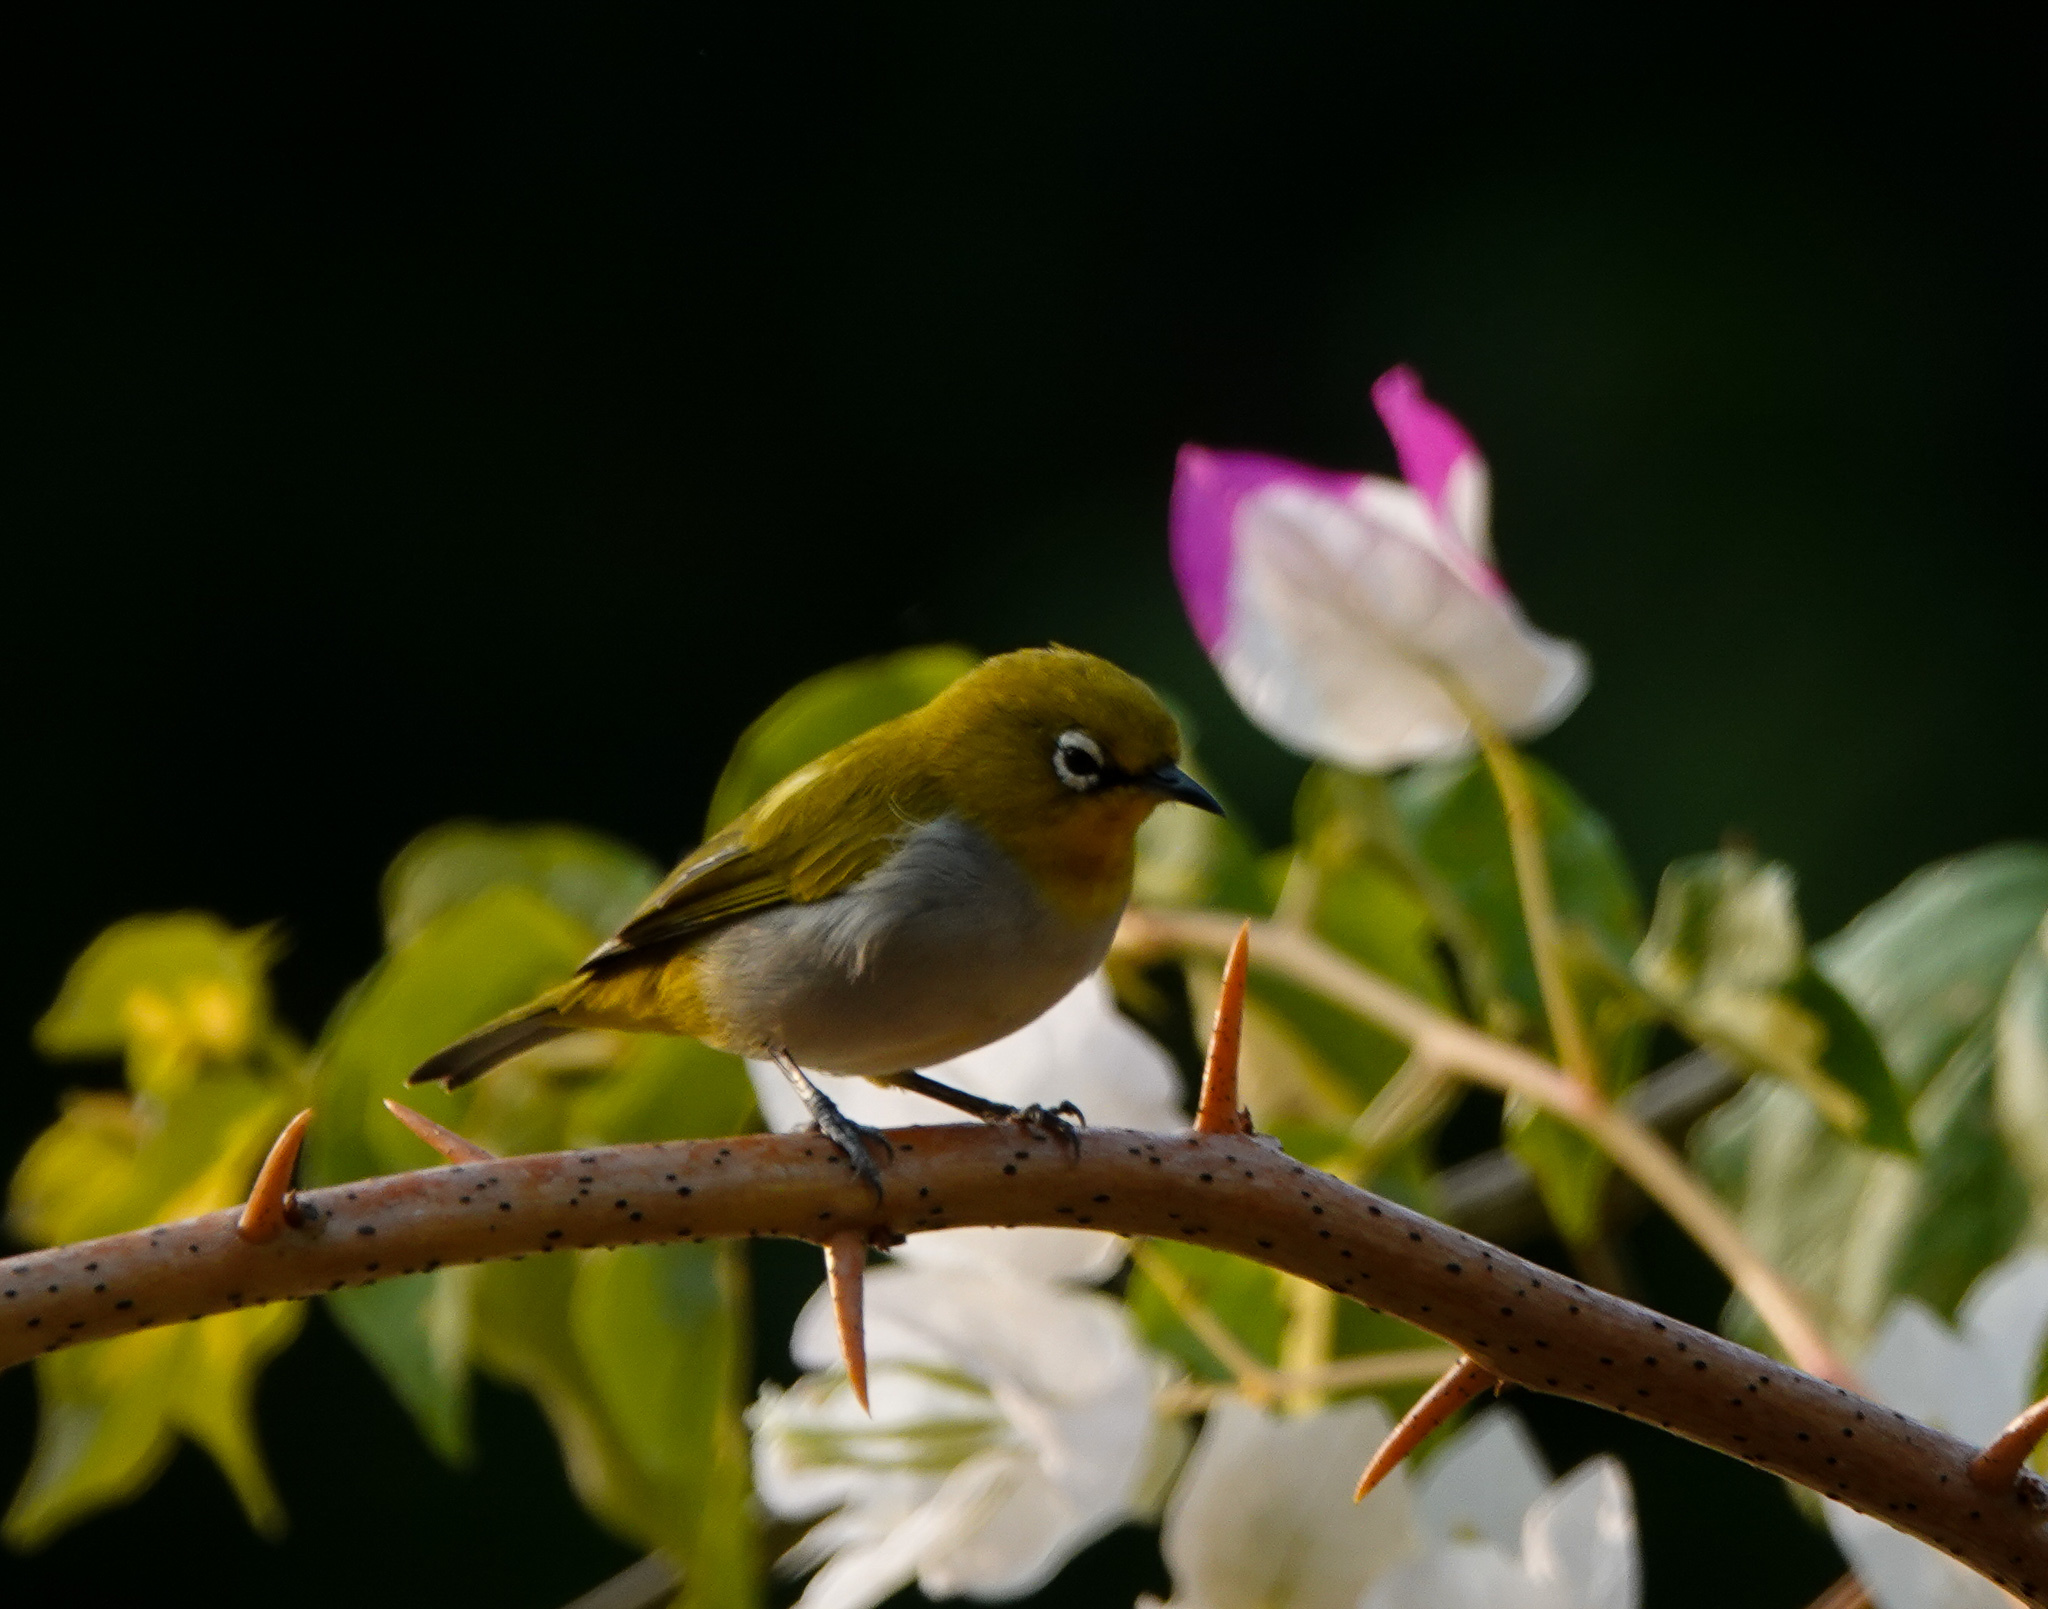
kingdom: Animalia
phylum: Chordata
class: Aves
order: Passeriformes
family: Zosteropidae
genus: Zosterops
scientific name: Zosterops palpebrosus
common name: Oriental white-eye
